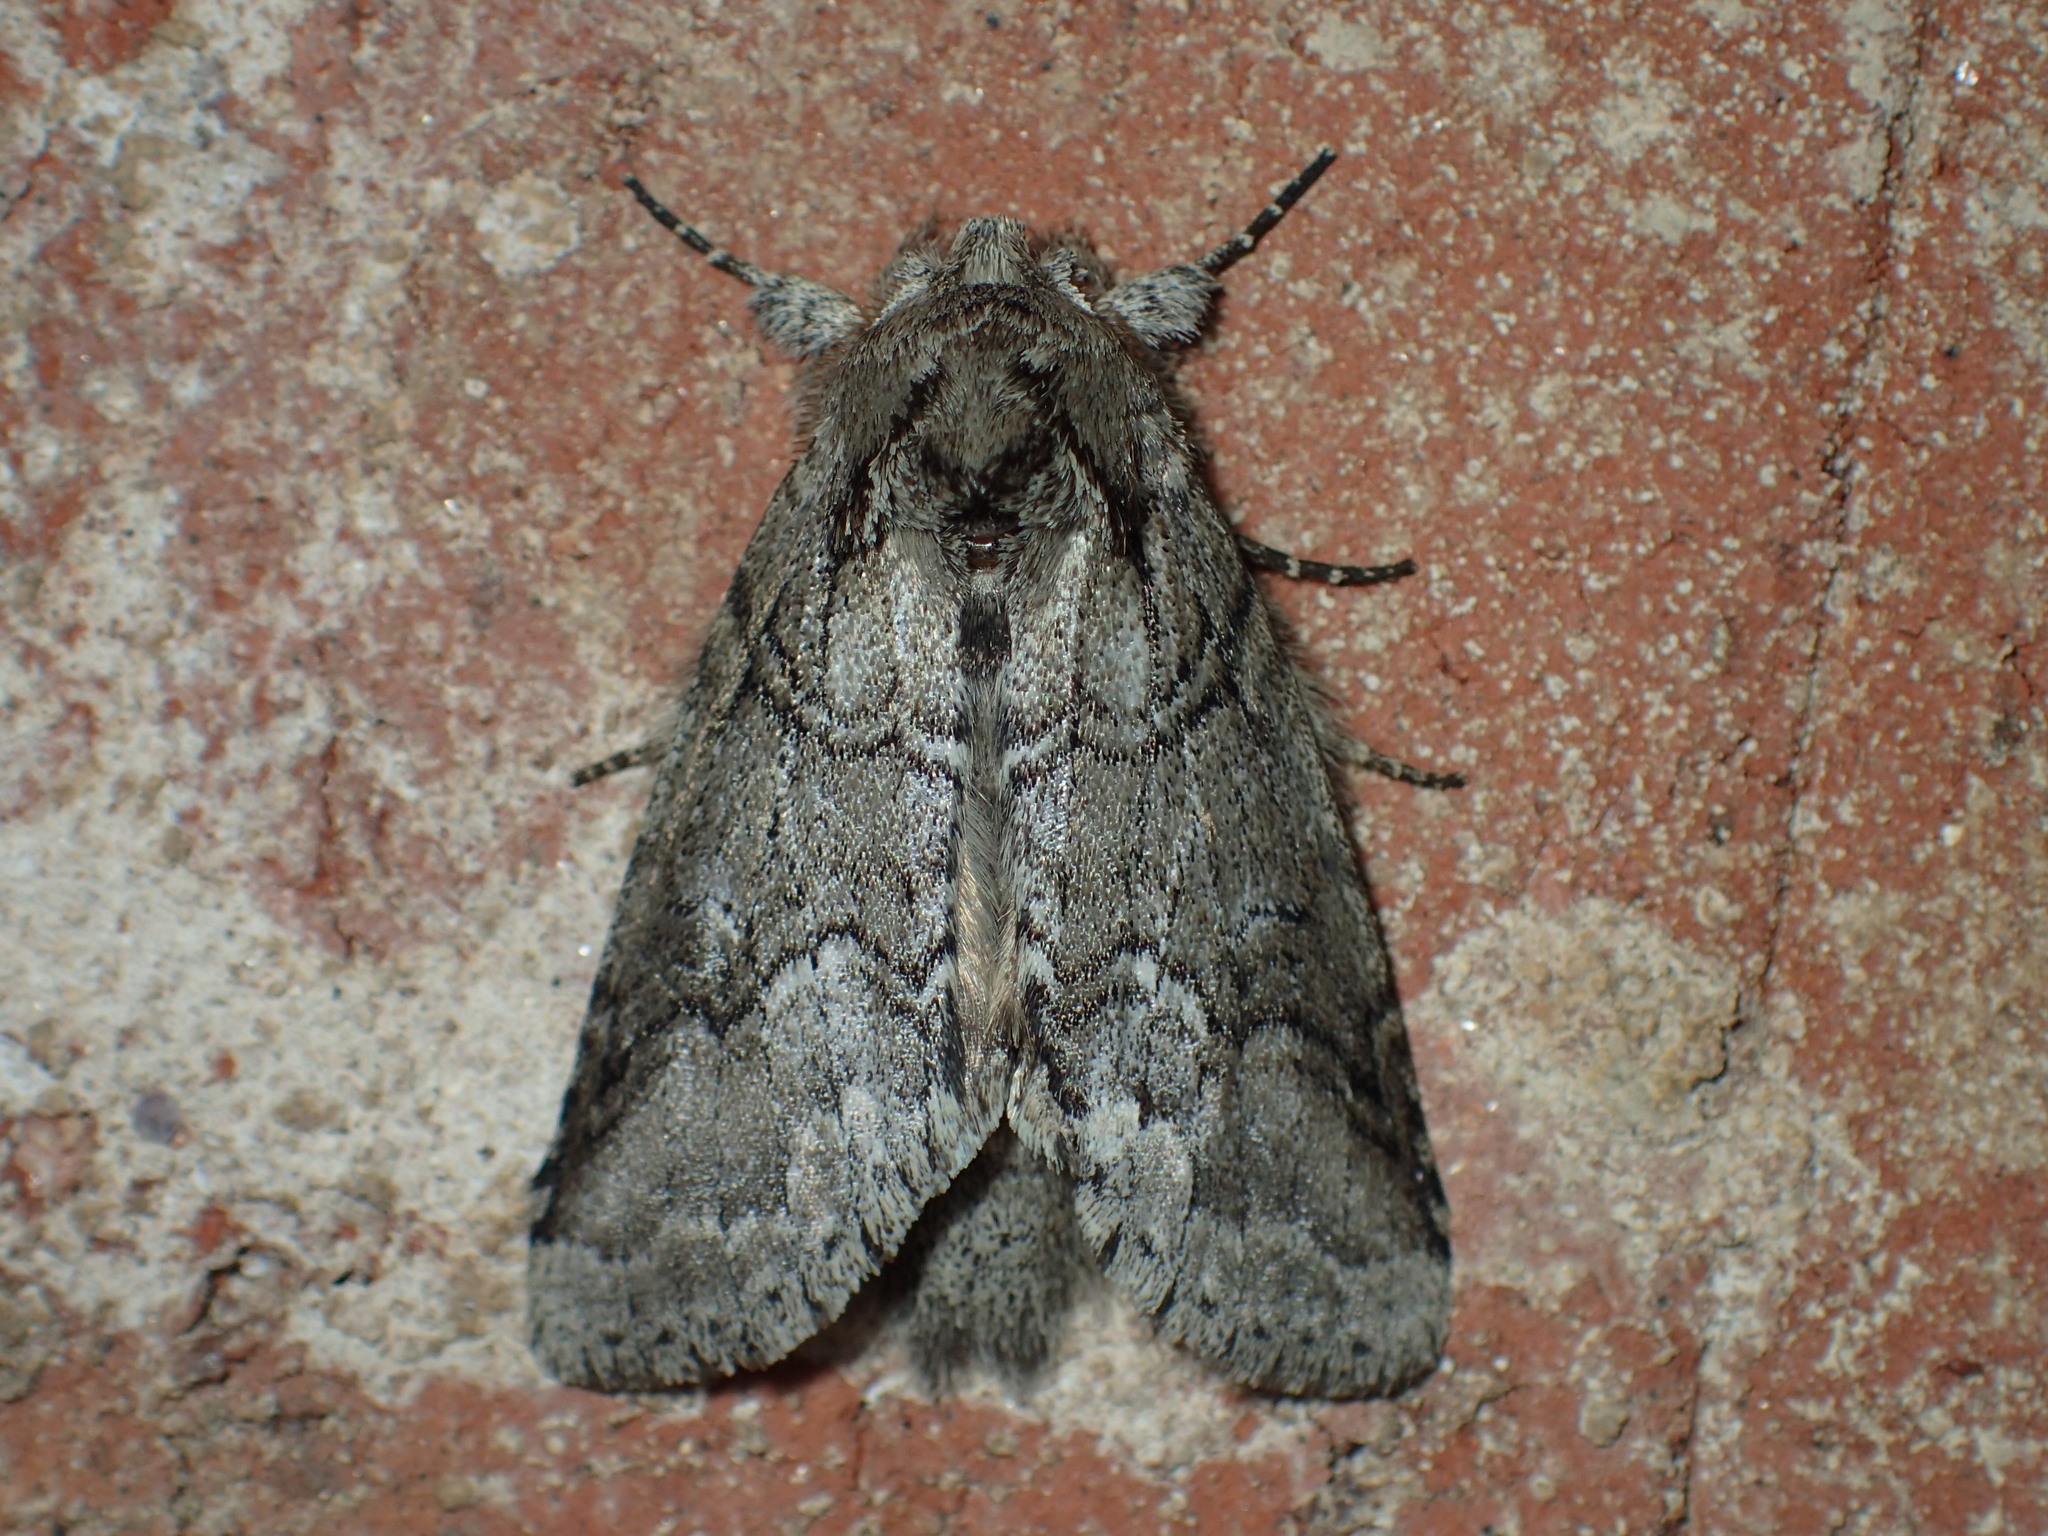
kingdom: Animalia
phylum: Arthropoda
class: Insecta
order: Lepidoptera
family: Notodontidae
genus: Lochmaeus
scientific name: Lochmaeus bilineata
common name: Double-lined prominent
